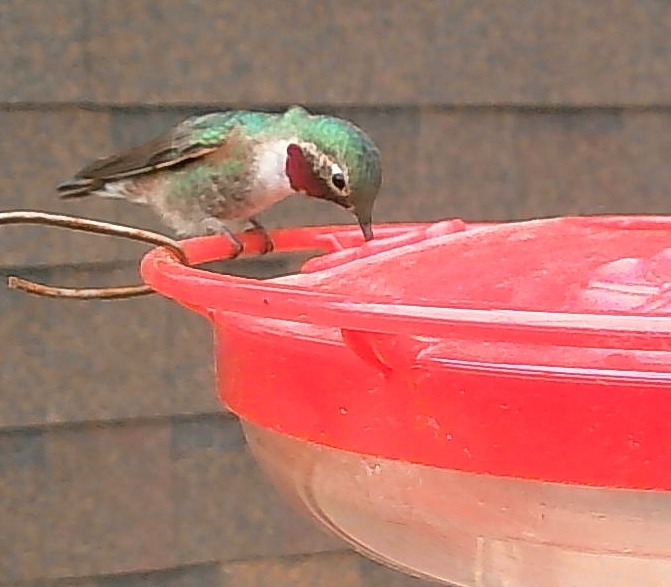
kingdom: Animalia
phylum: Chordata
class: Aves
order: Apodiformes
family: Trochilidae
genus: Selasphorus
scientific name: Selasphorus platycercus
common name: Broad-tailed hummingbird
